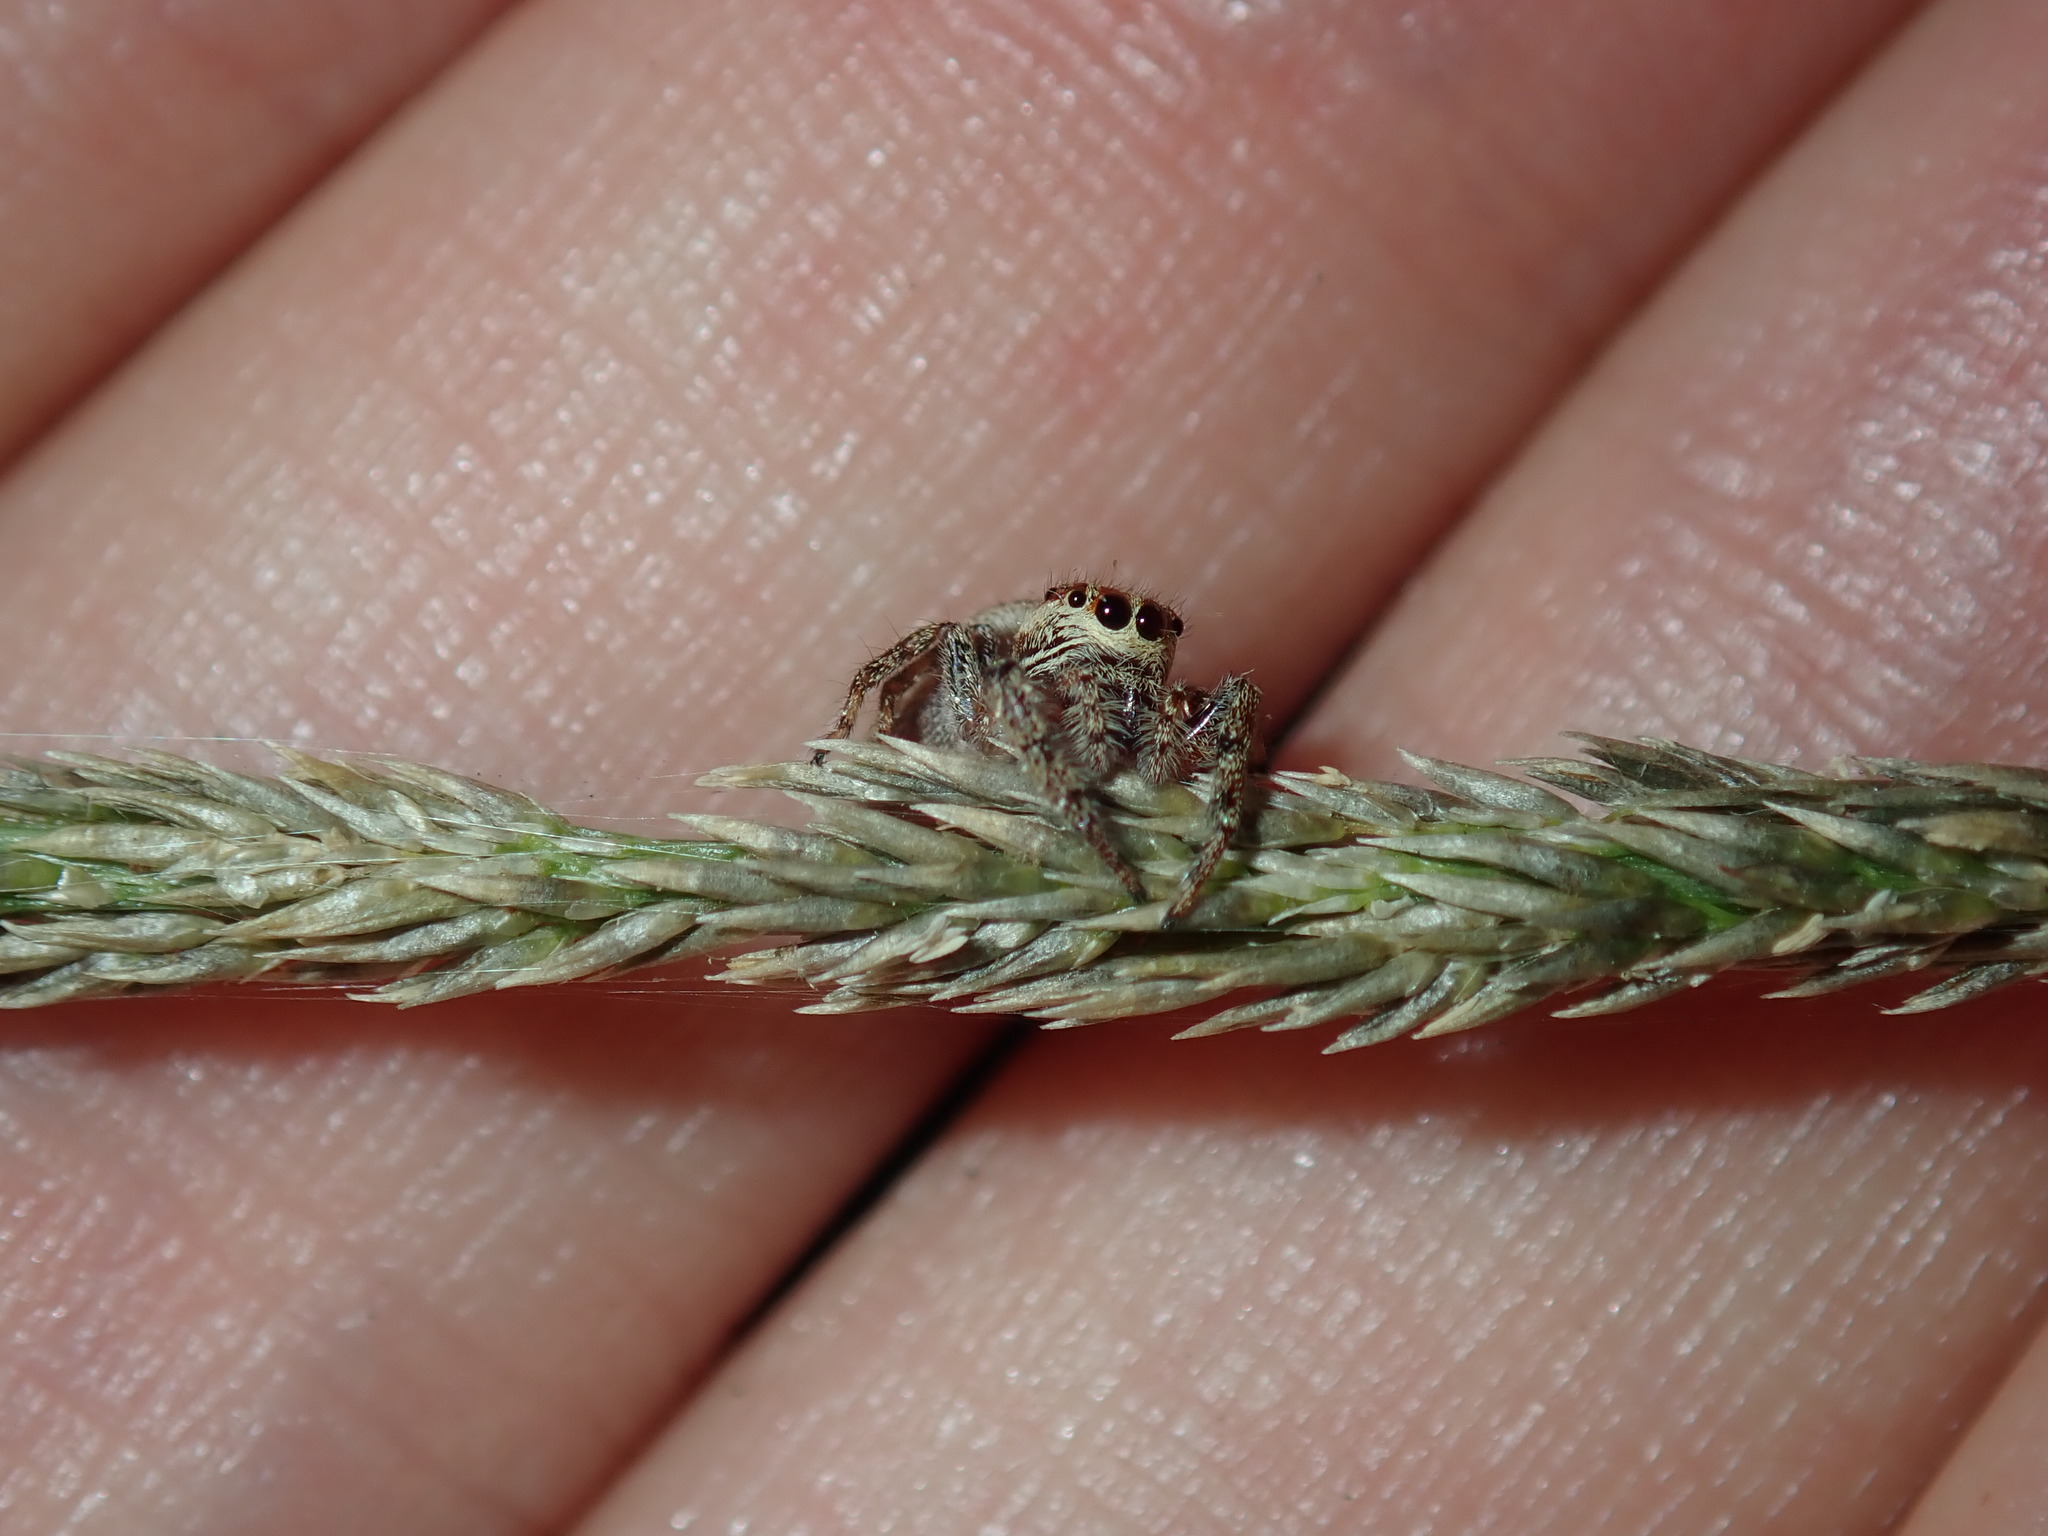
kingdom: Animalia
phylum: Arthropoda
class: Arachnida
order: Araneae
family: Salticidae
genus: Opisthoncus
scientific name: Opisthoncus serratofasciatus
